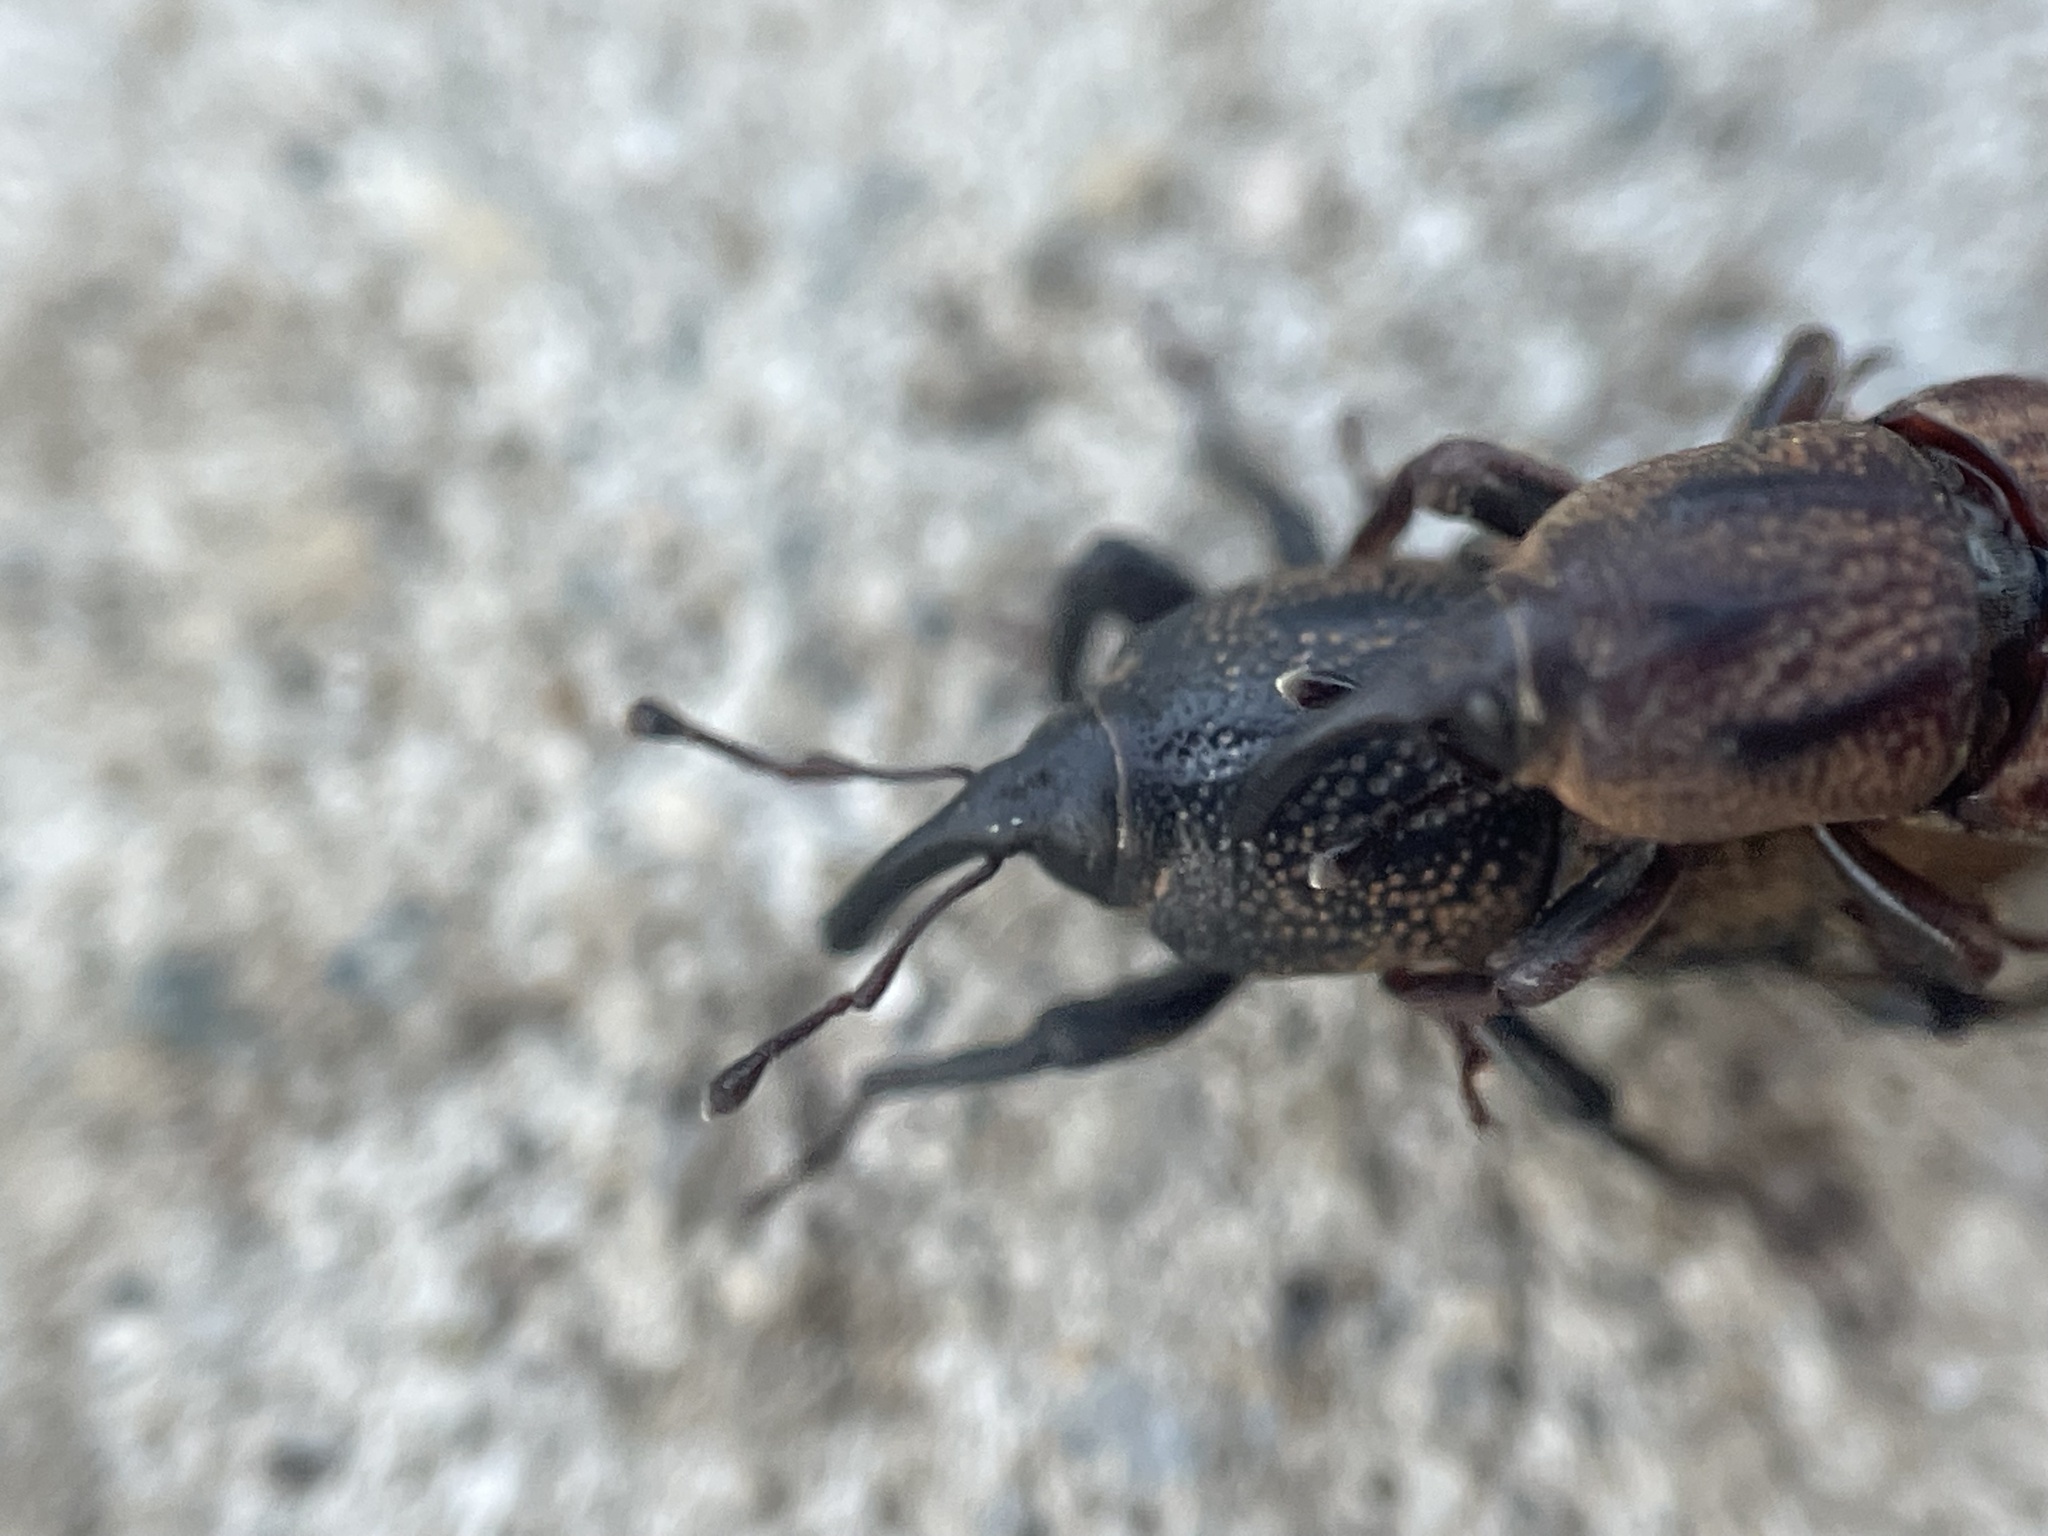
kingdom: Animalia
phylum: Arthropoda
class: Insecta
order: Coleoptera
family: Dryophthoridae
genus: Sphenophorus
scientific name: Sphenophorus venatus
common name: Hunting billbug
